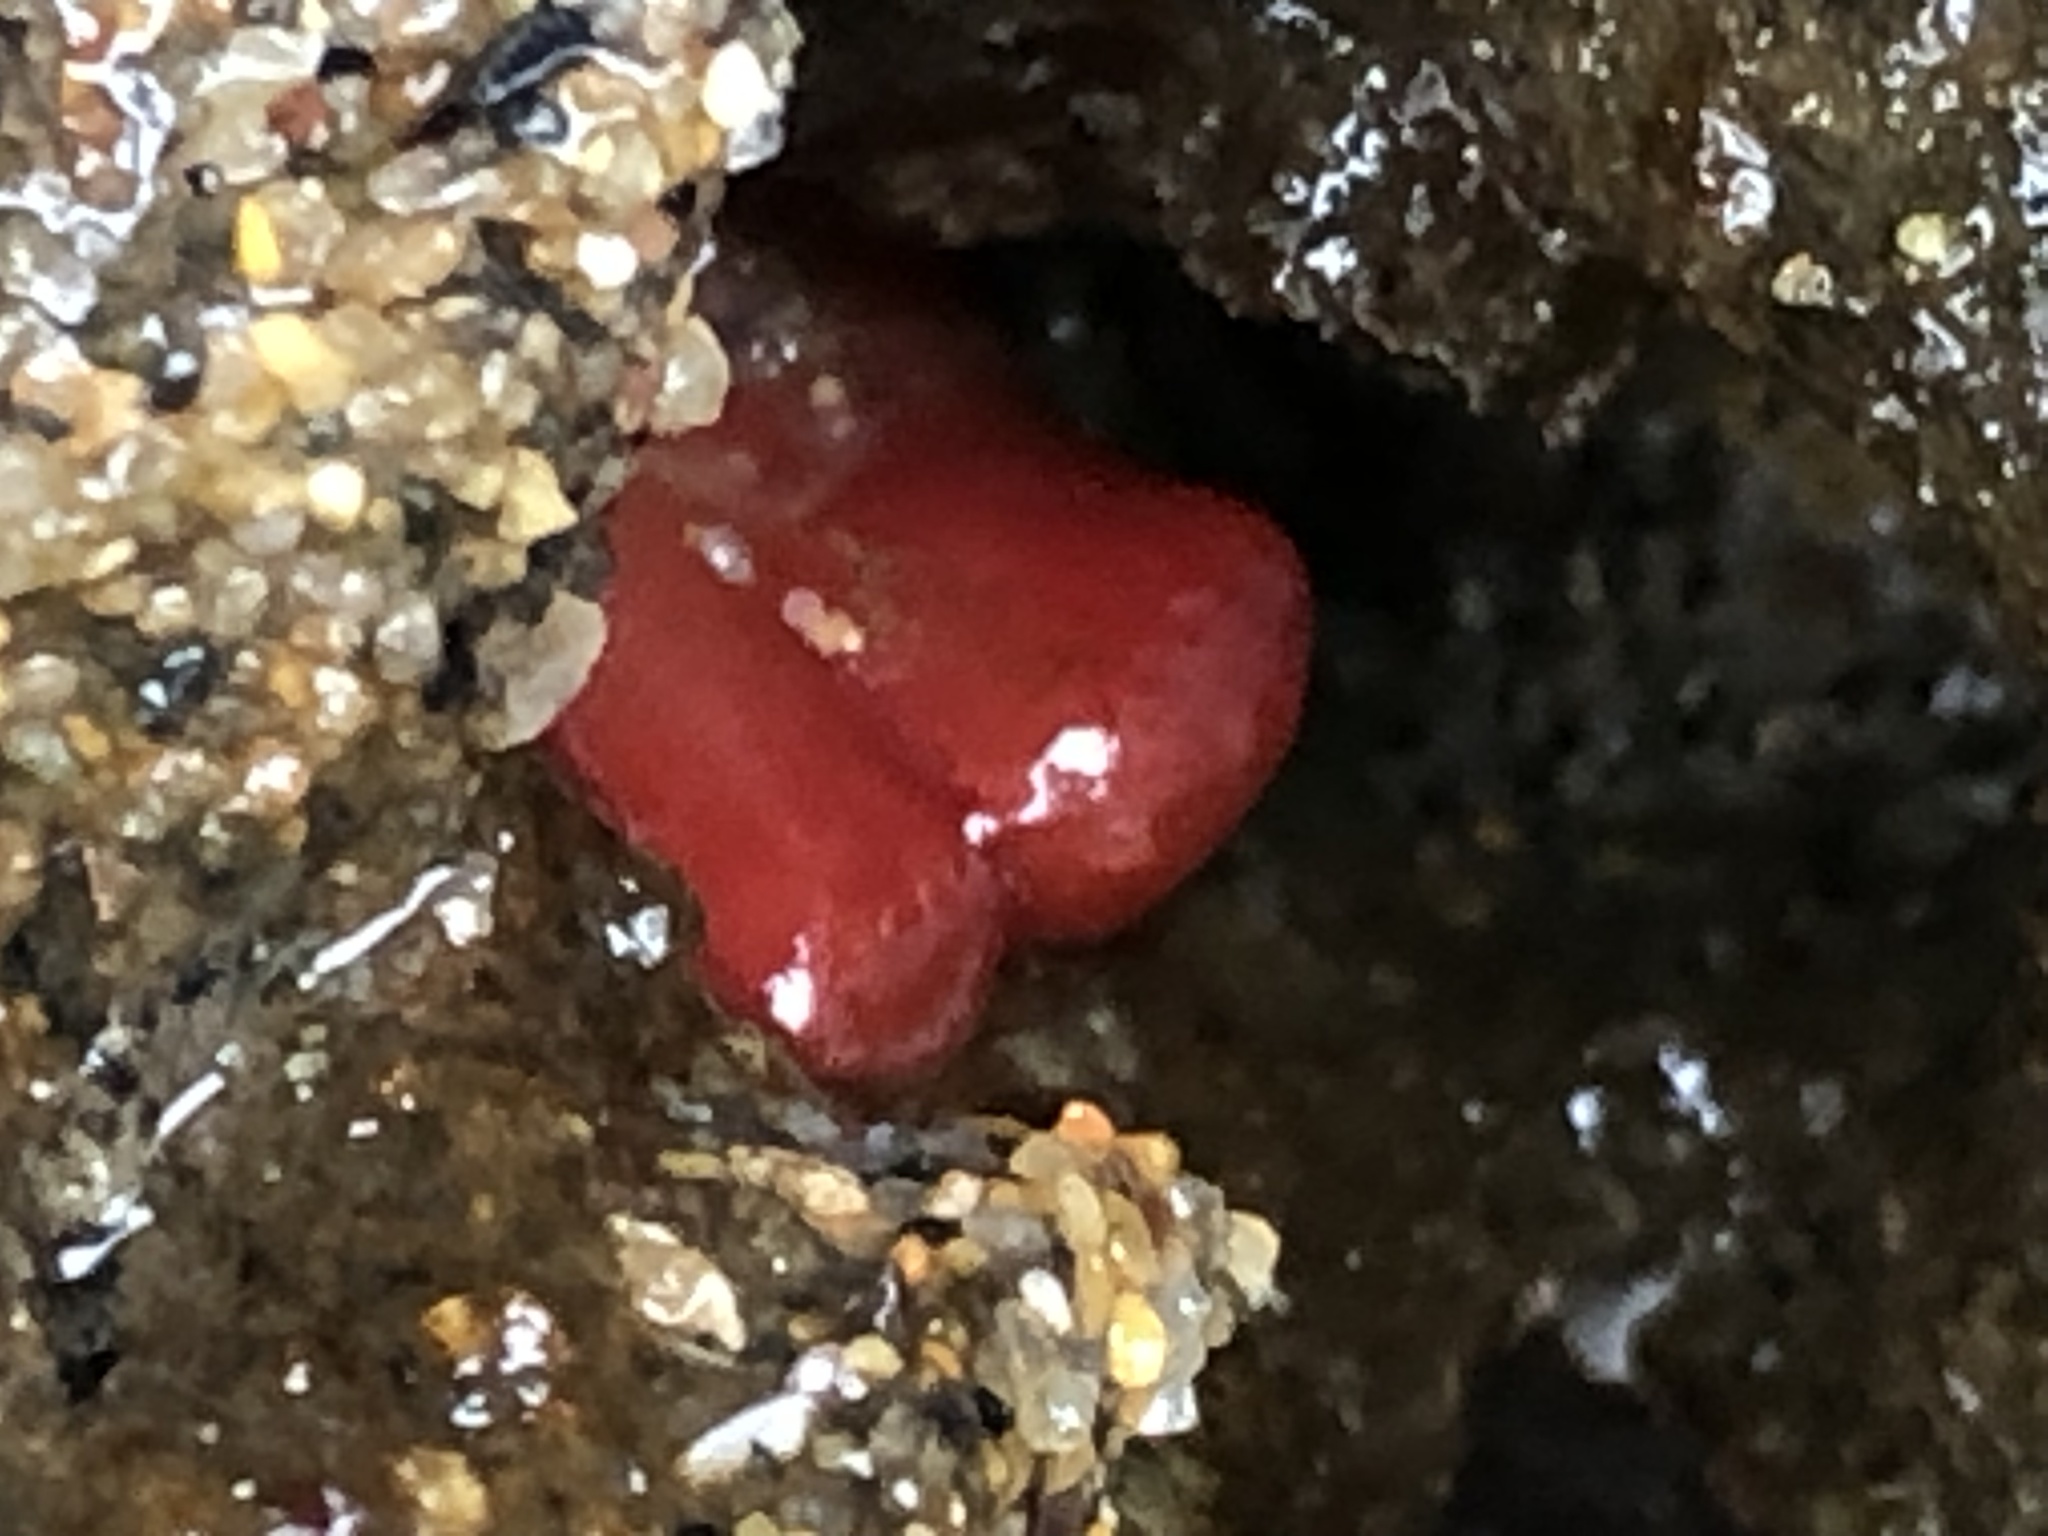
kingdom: Animalia
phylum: Mollusca
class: Bivalvia
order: Adapedonta
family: Hiatellidae
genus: Hiatella
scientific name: Hiatella arctica
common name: Arctic hiatella
